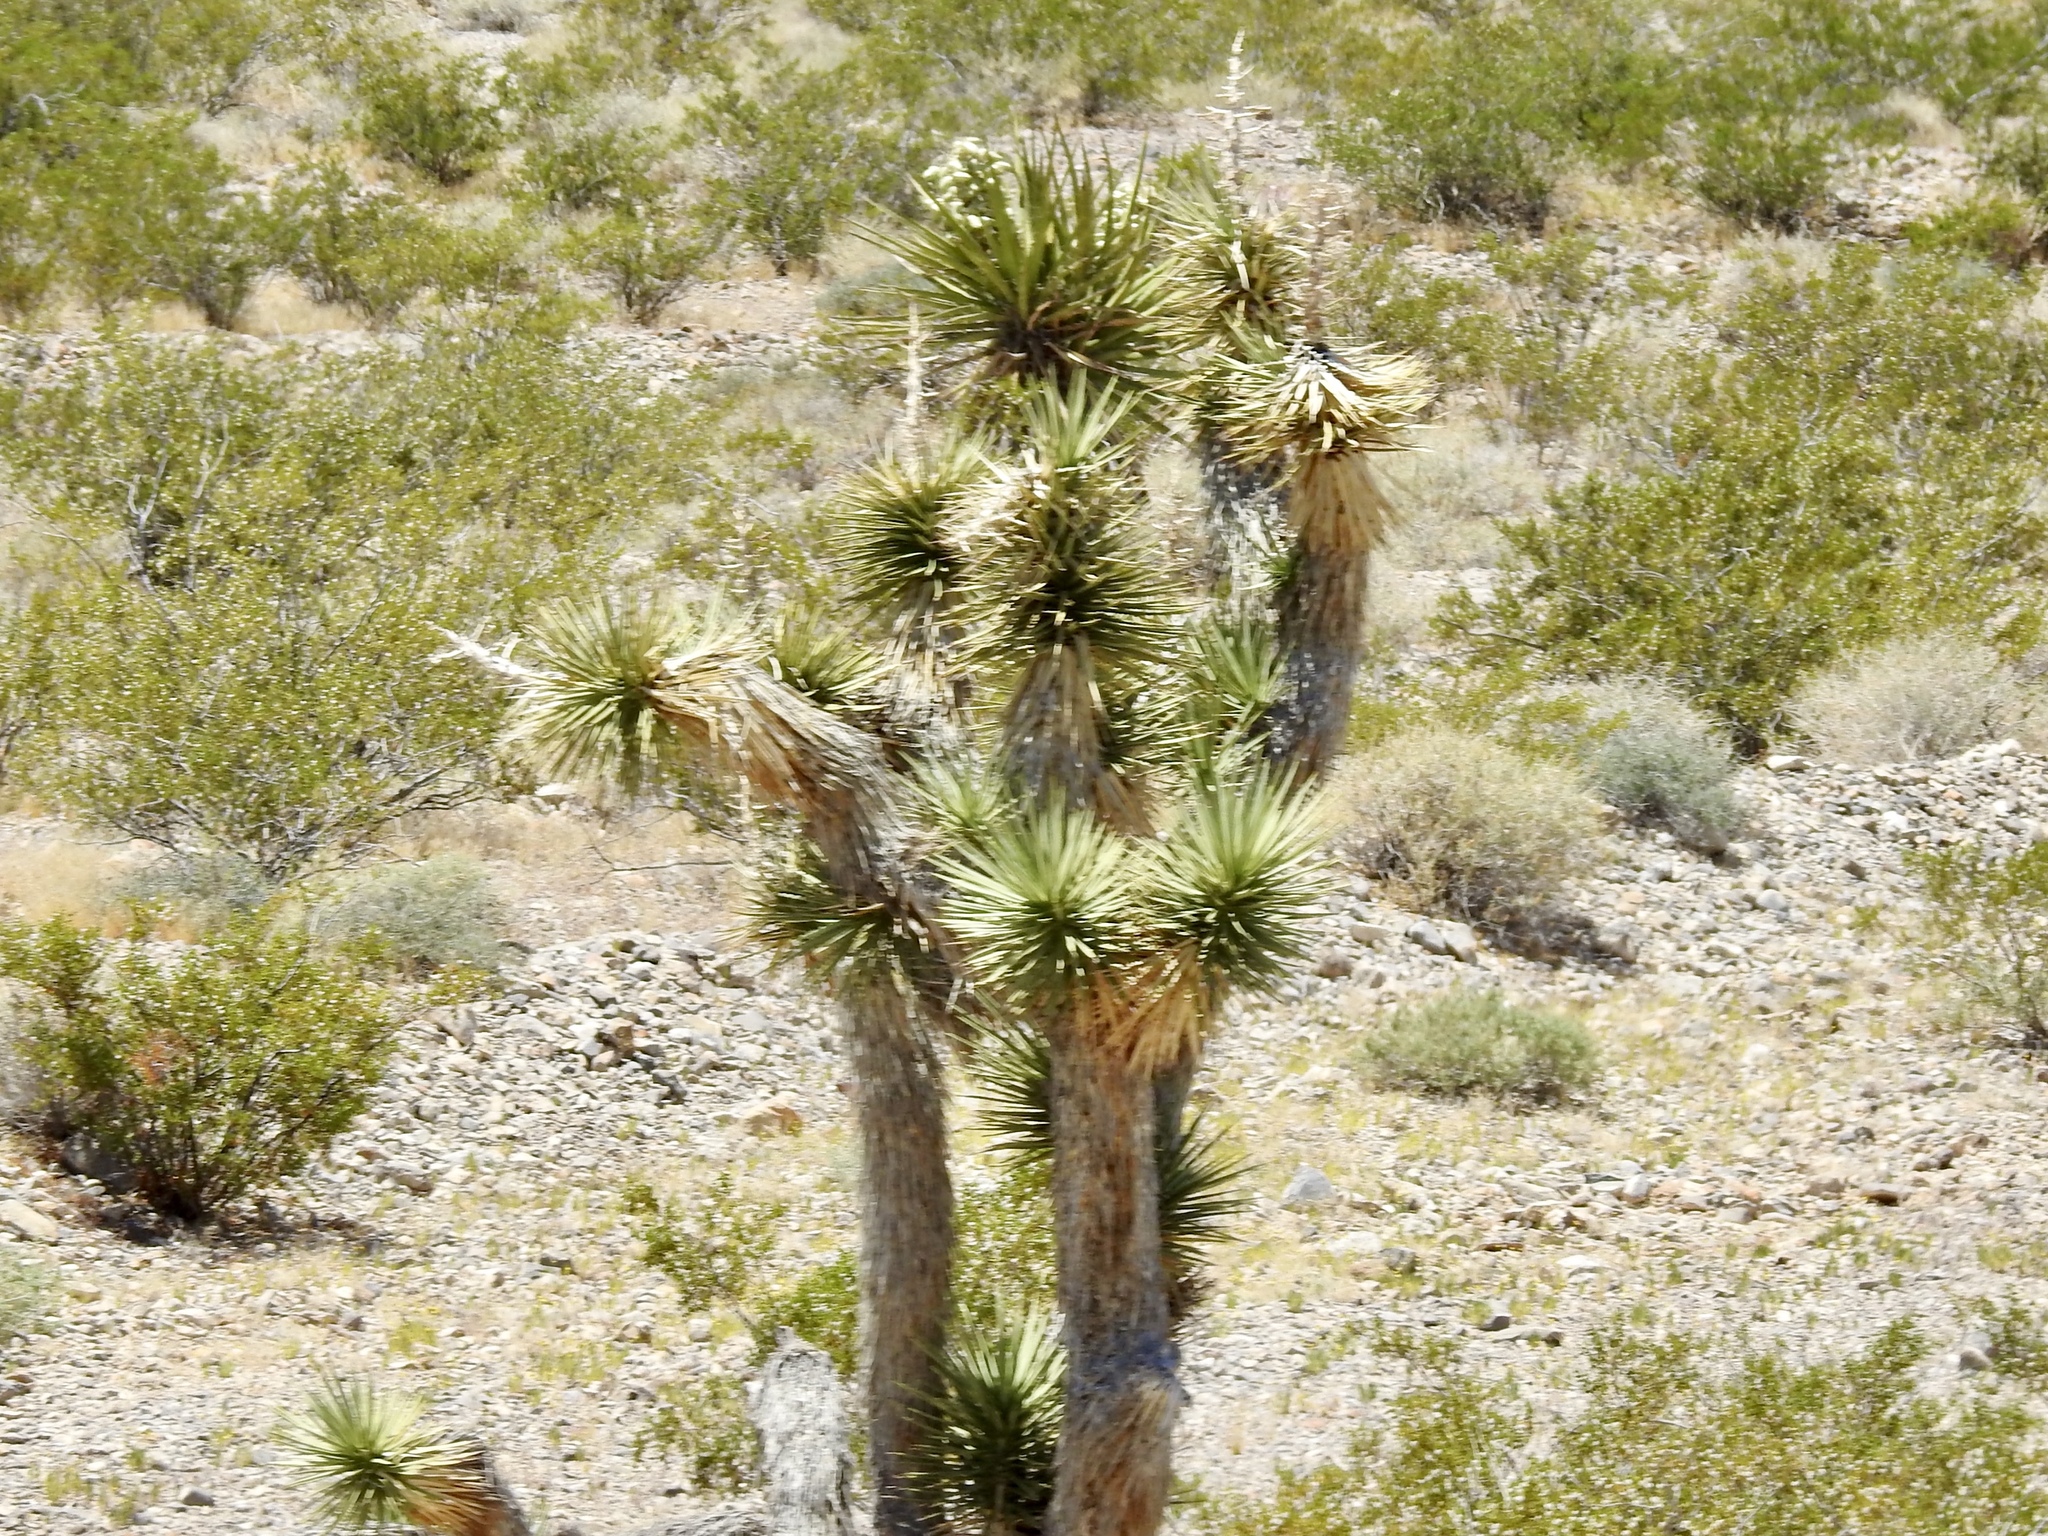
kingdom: Plantae
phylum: Tracheophyta
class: Liliopsida
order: Asparagales
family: Asparagaceae
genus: Yucca
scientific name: Yucca brevifolia
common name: Joshua tree
